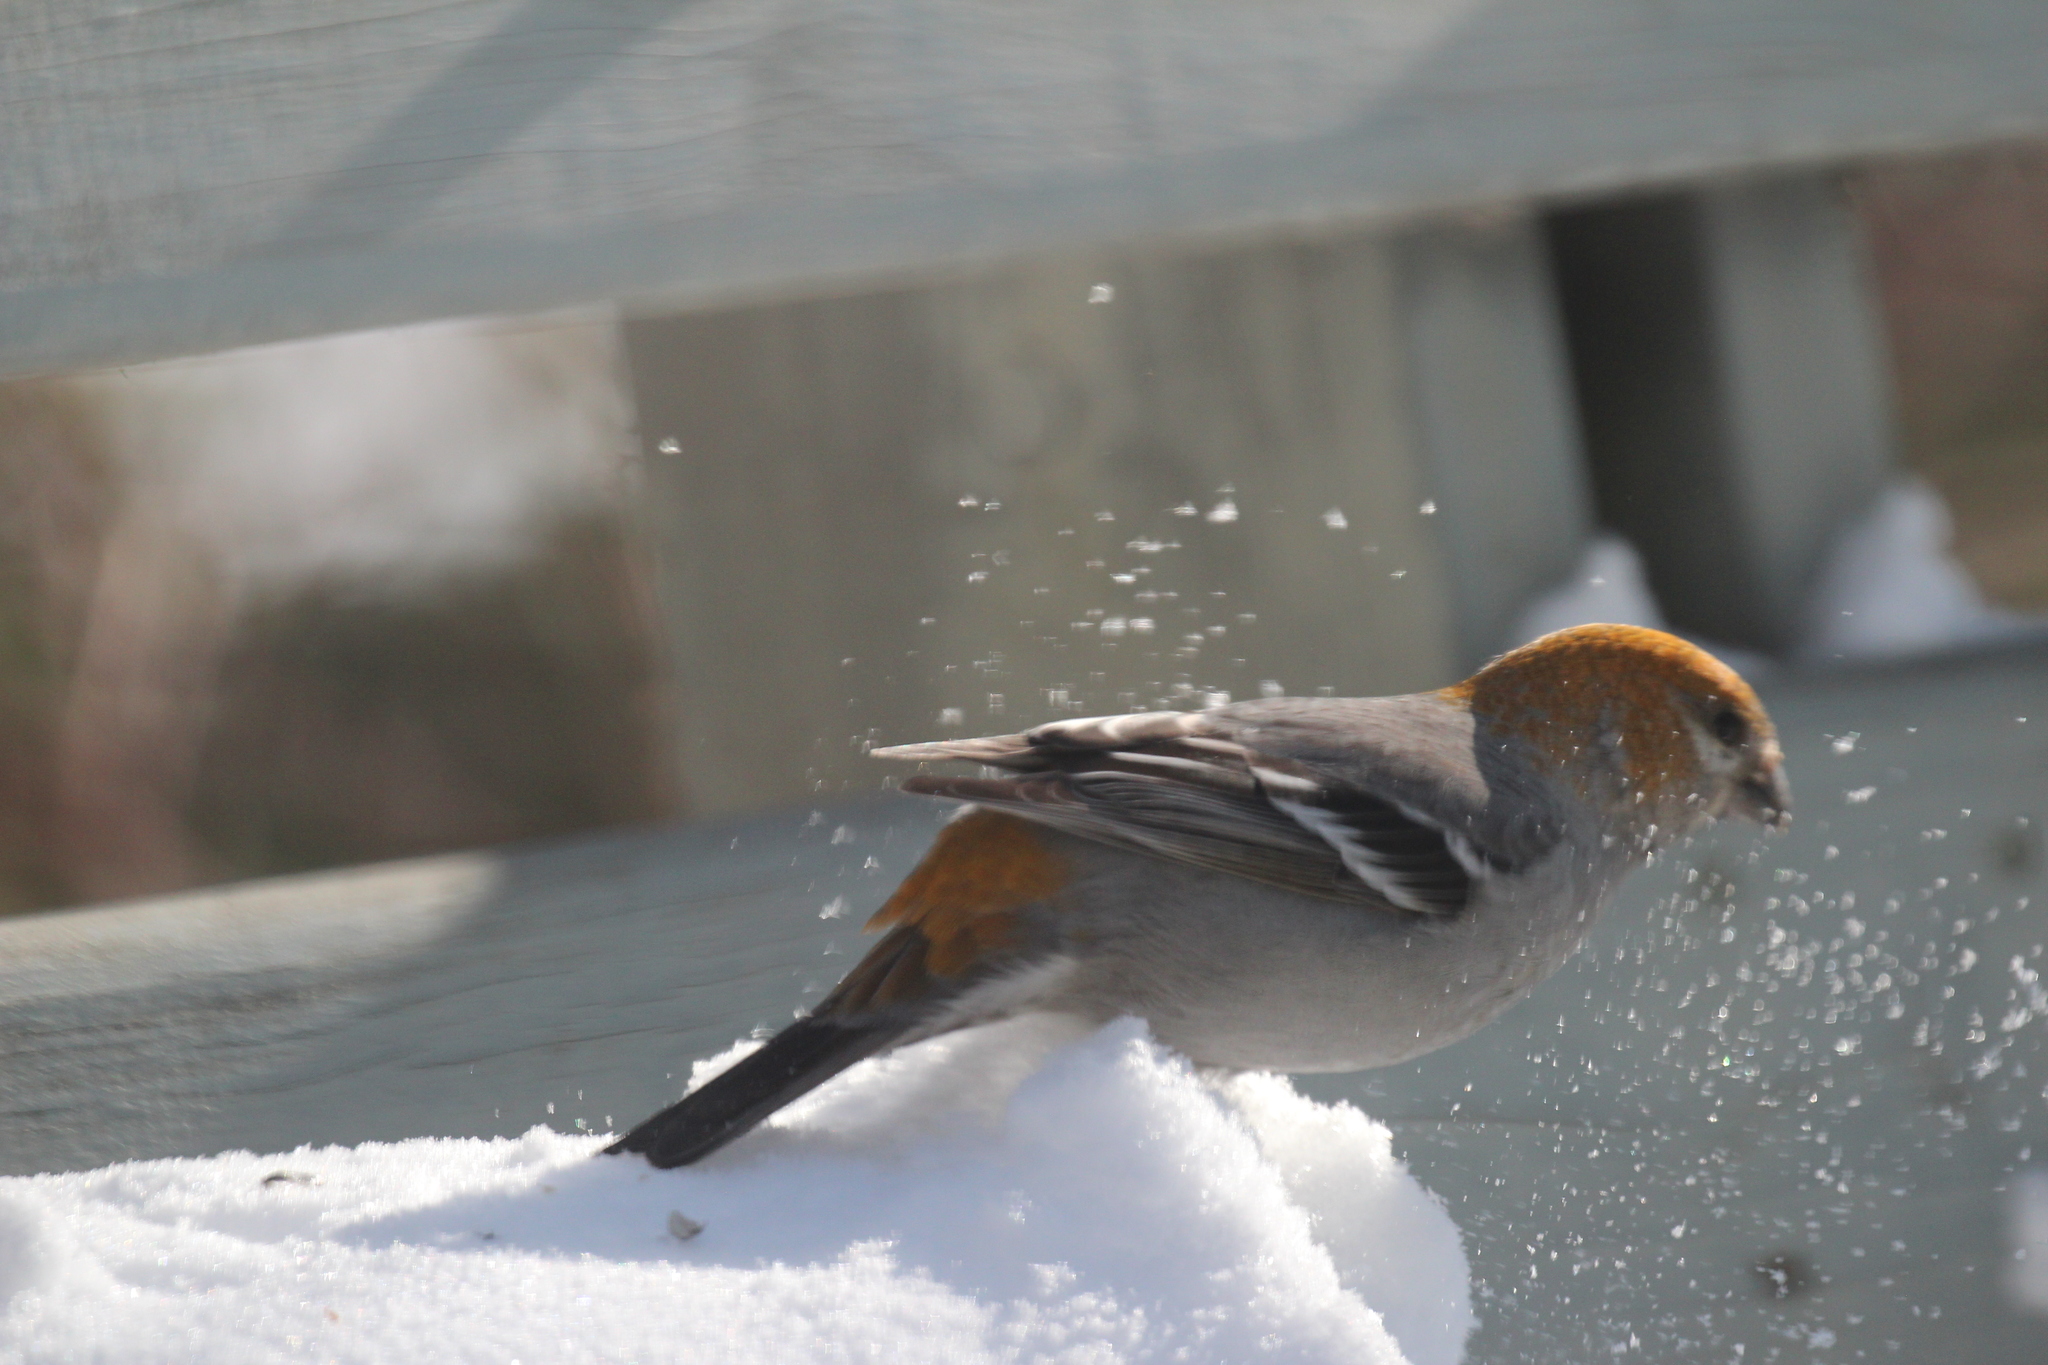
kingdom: Animalia
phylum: Chordata
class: Aves
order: Passeriformes
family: Fringillidae
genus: Pinicola
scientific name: Pinicola enucleator
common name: Pine grosbeak
